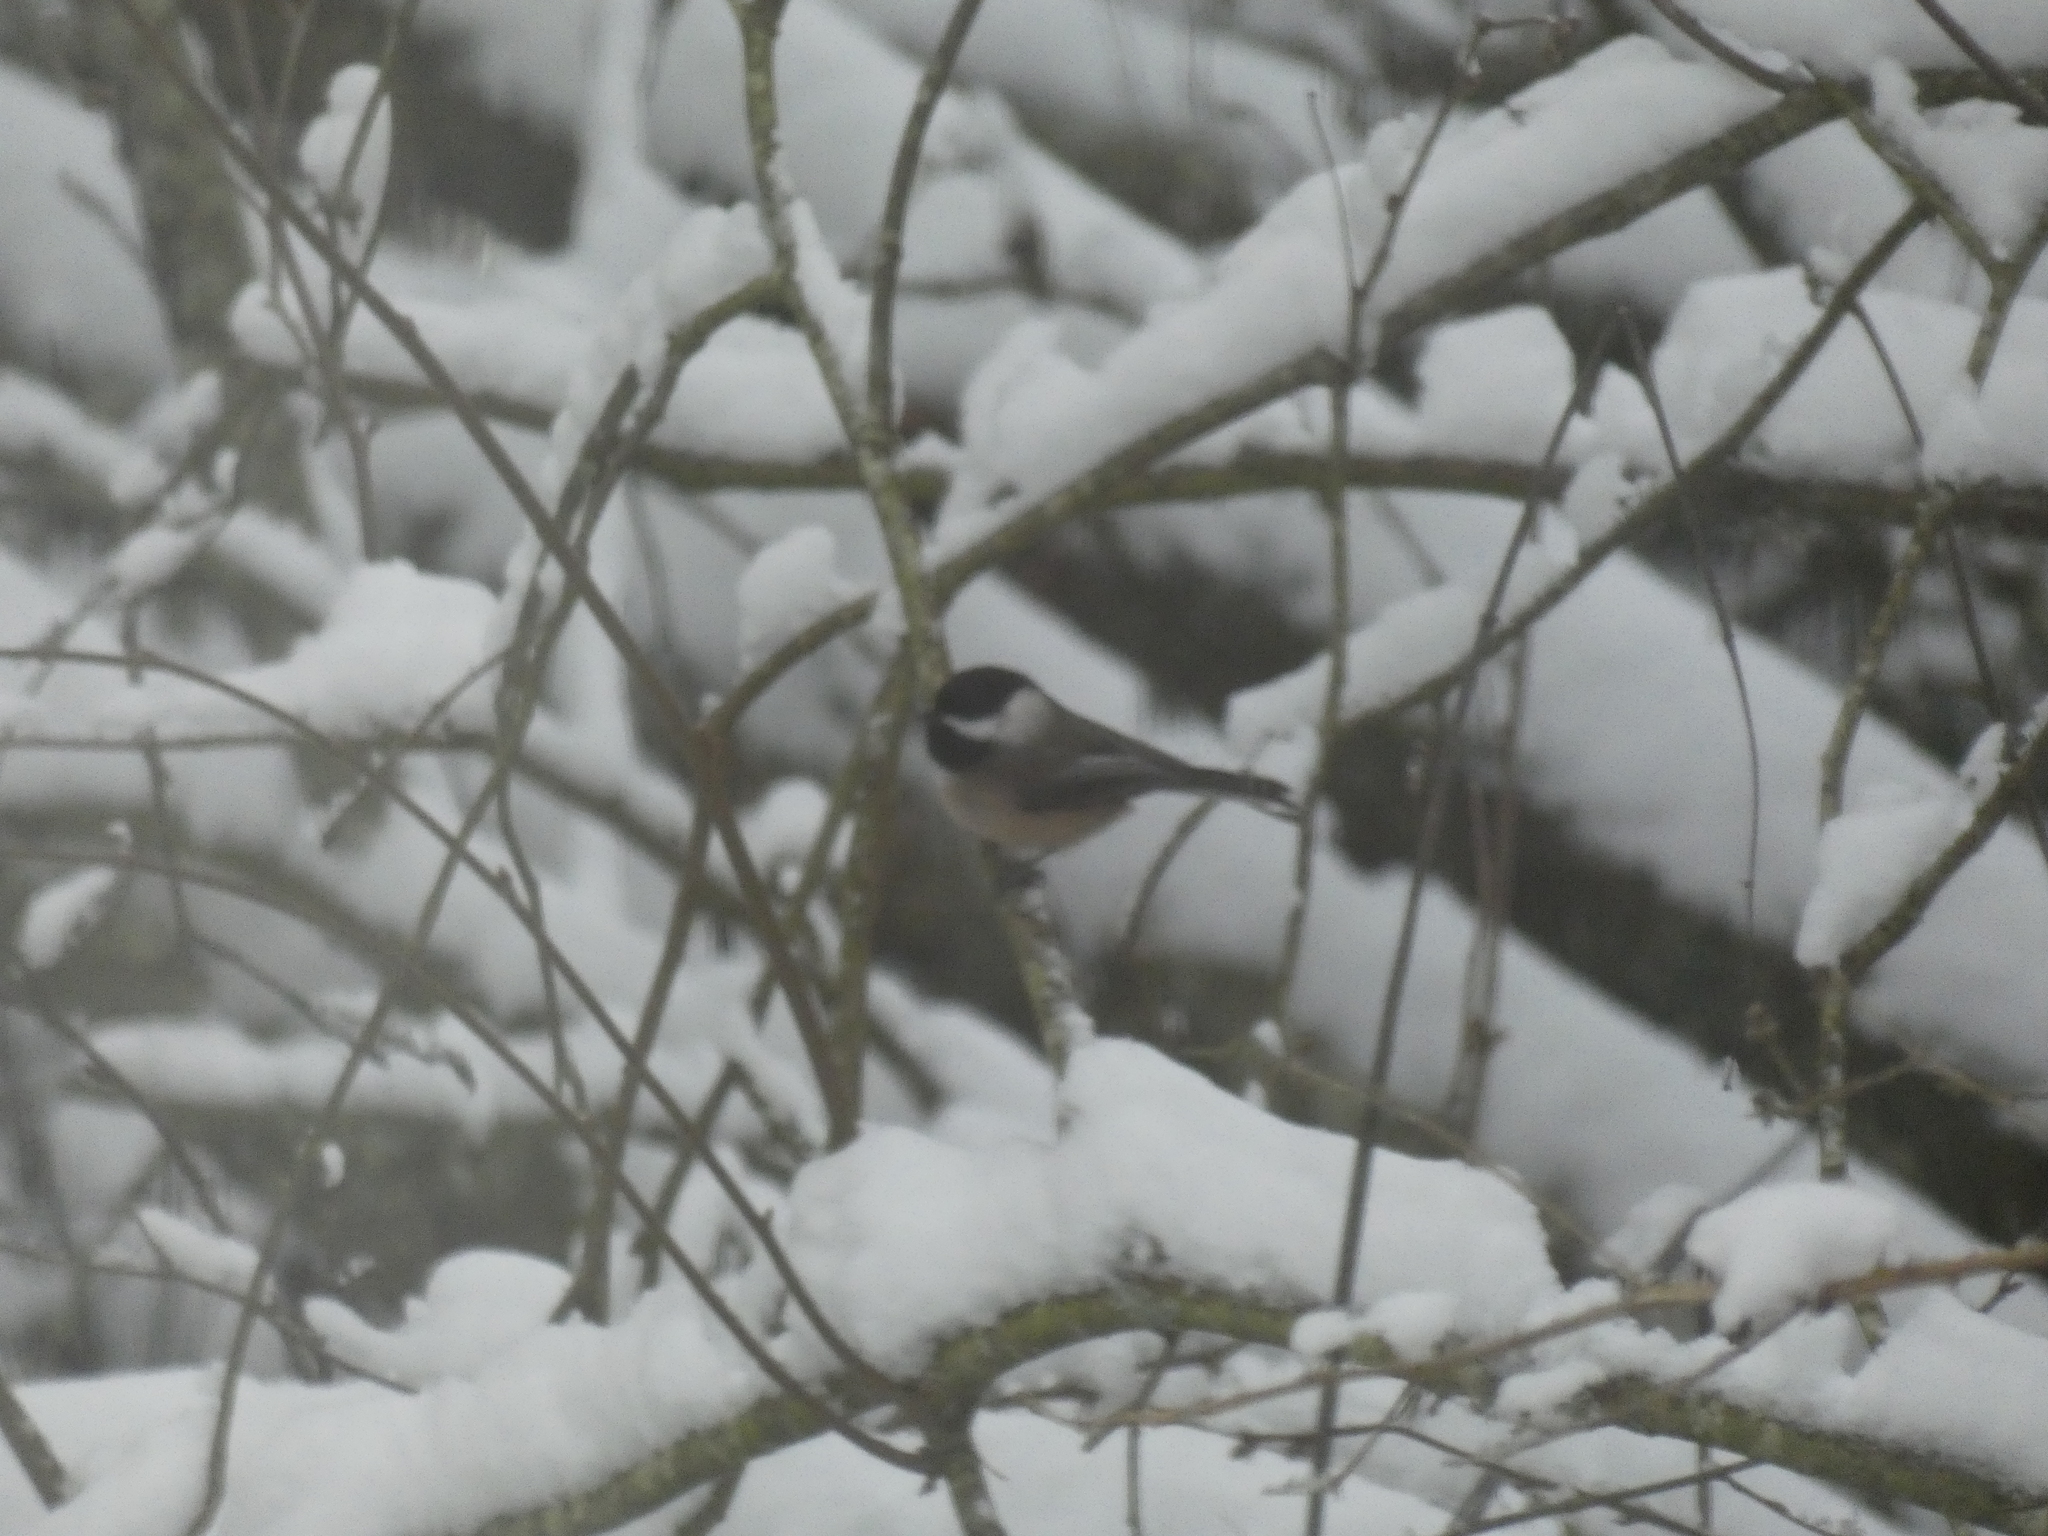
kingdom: Animalia
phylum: Chordata
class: Aves
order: Passeriformes
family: Paridae
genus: Poecile
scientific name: Poecile atricapillus
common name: Black-capped chickadee
